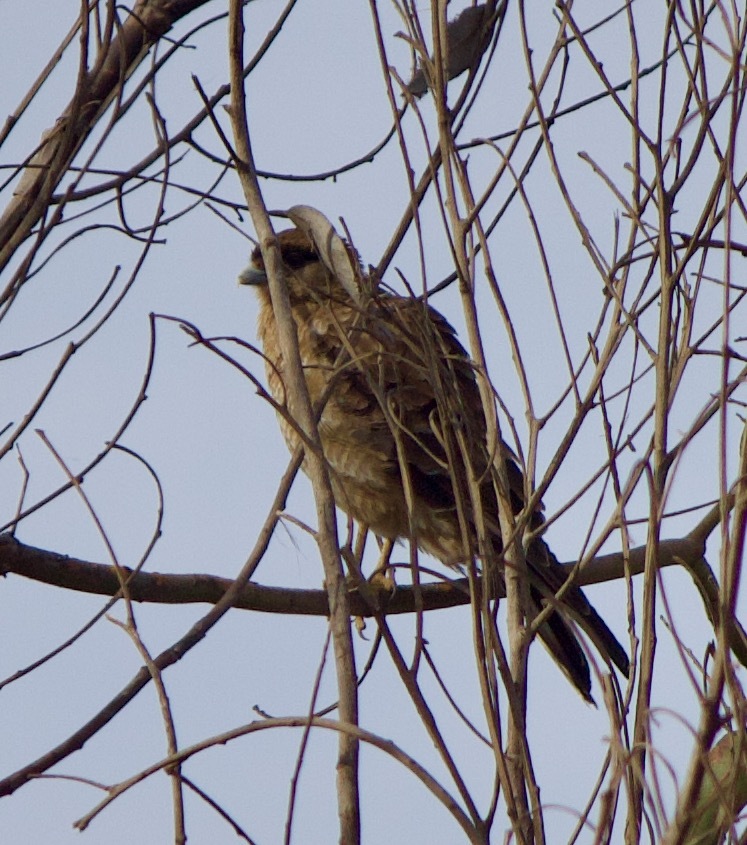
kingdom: Animalia
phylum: Chordata
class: Aves
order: Falconiformes
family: Falconidae
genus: Daptrius
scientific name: Daptrius
